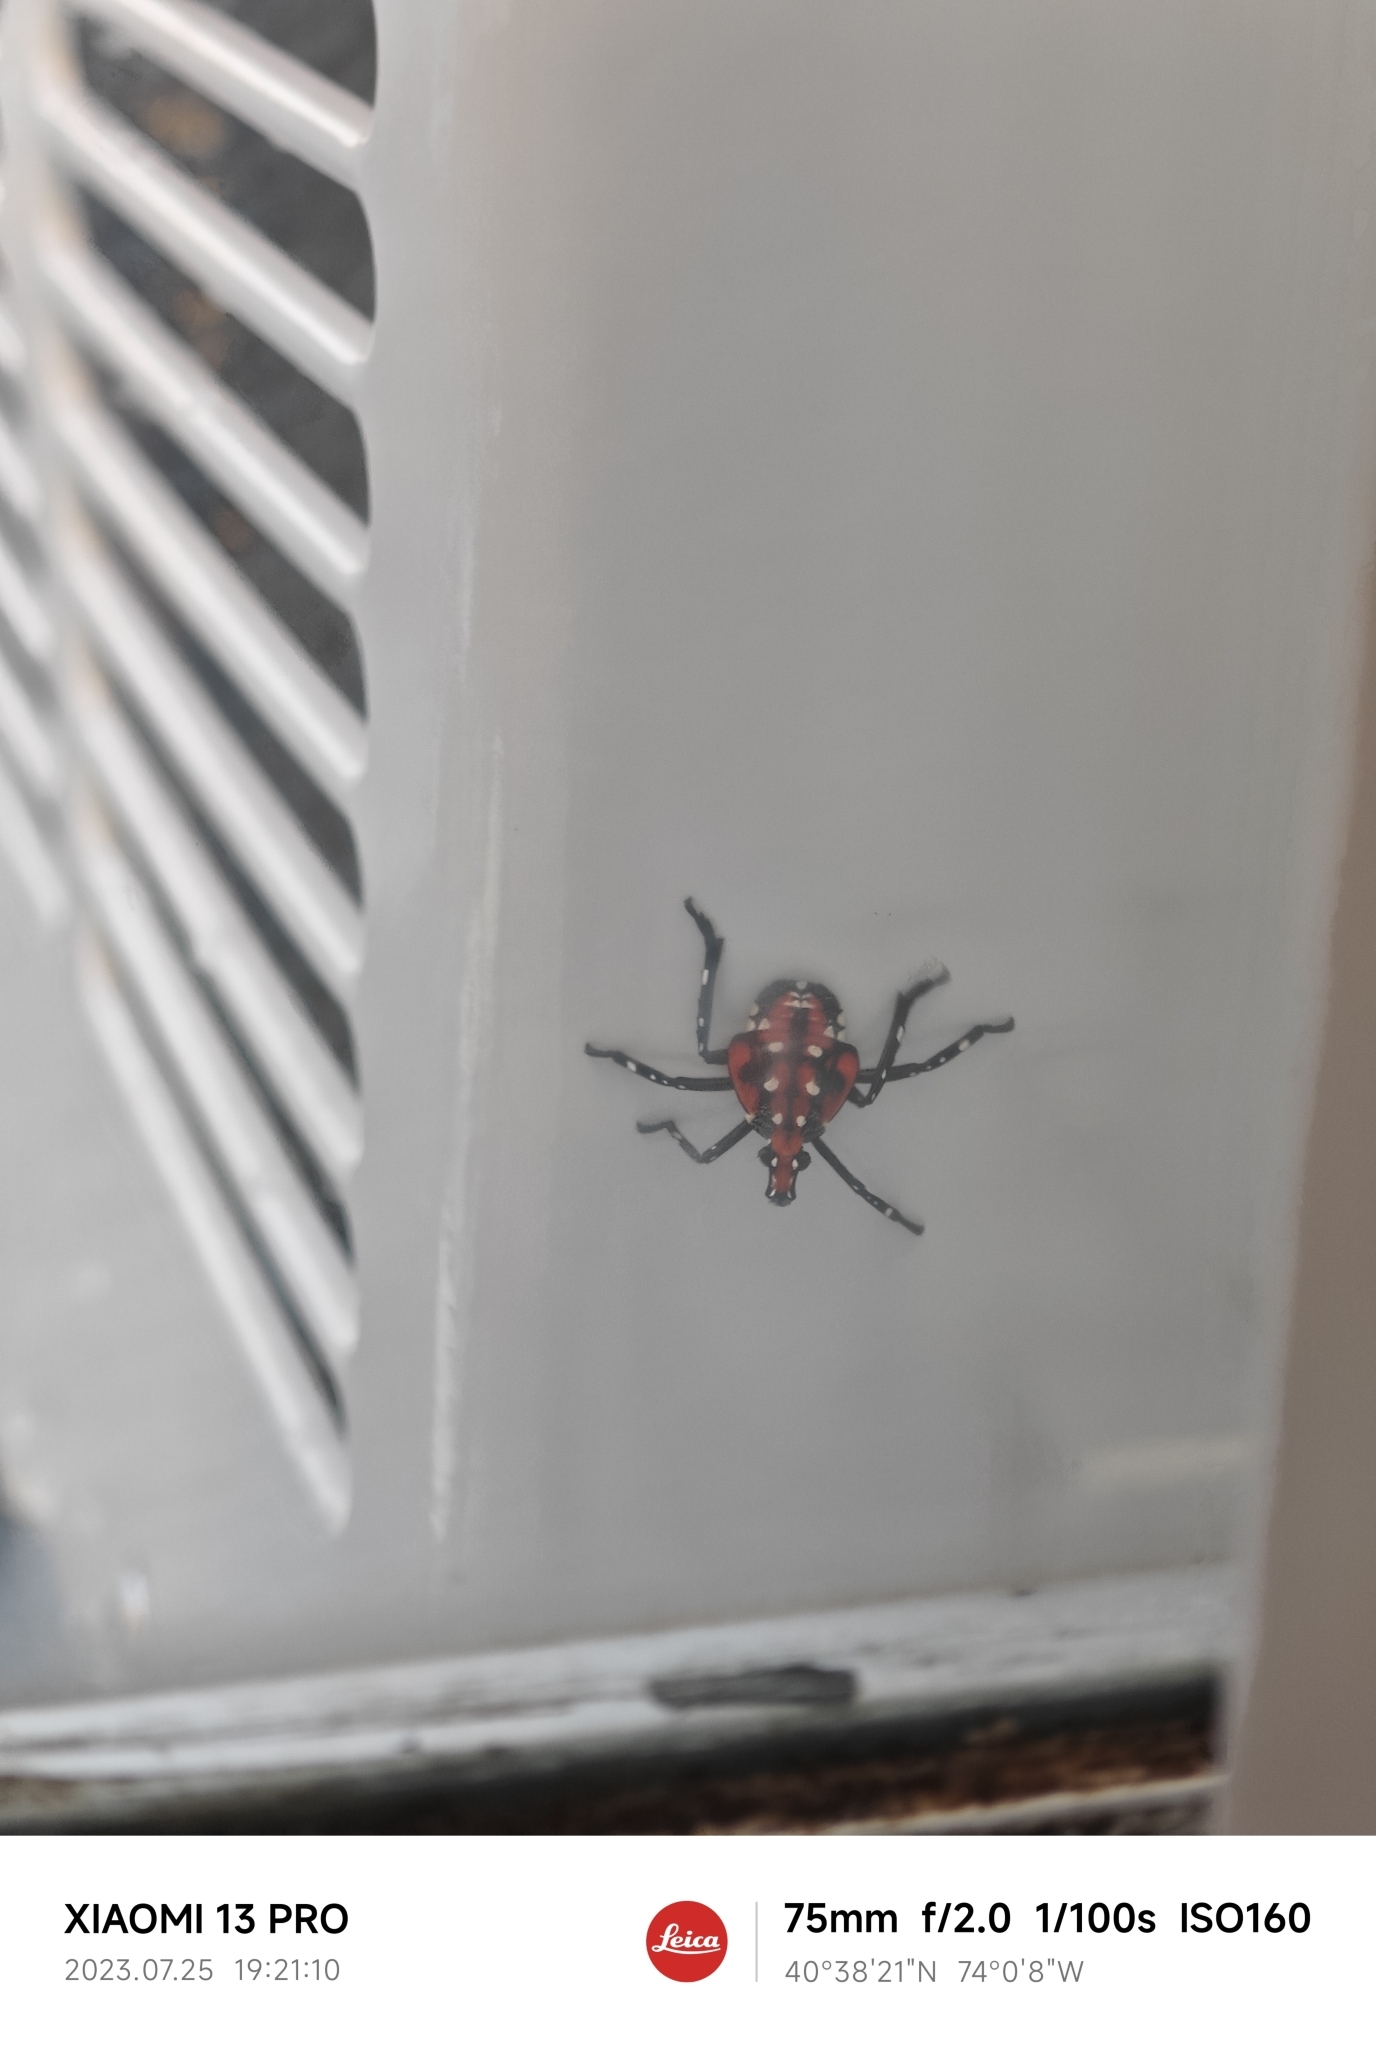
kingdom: Animalia
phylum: Arthropoda
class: Insecta
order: Hemiptera
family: Fulgoridae
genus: Lycorma
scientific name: Lycorma delicatula
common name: Spotted lanternfly
